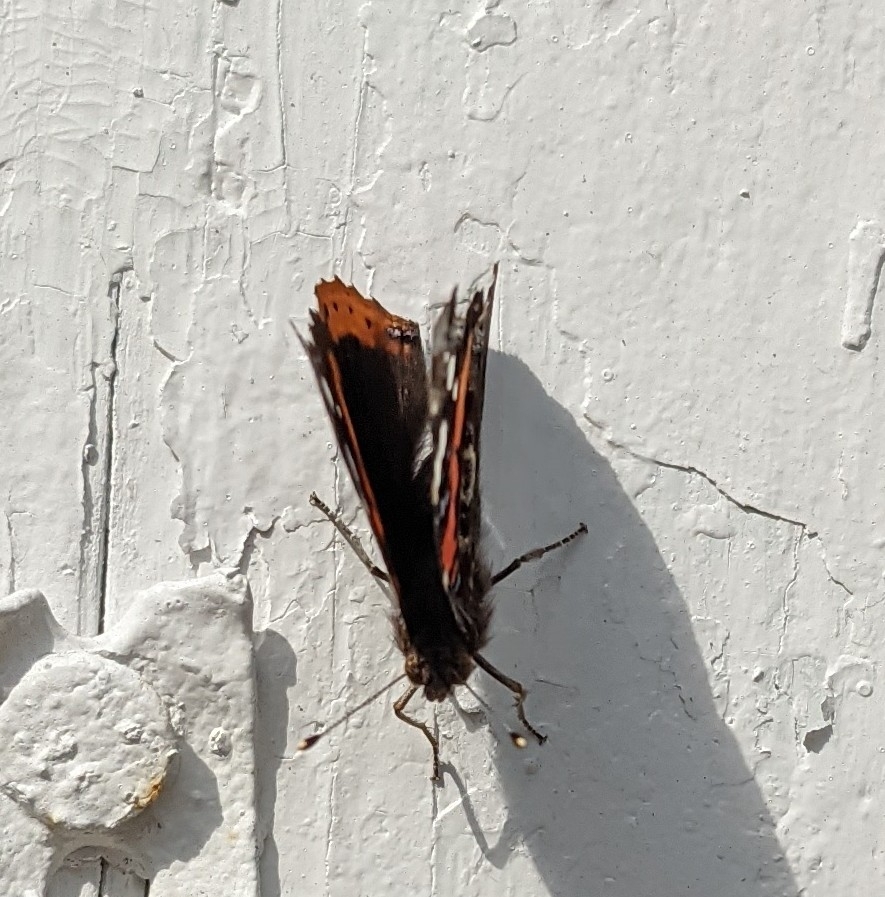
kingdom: Animalia
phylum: Arthropoda
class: Insecta
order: Lepidoptera
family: Nymphalidae
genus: Vanessa
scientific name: Vanessa atalanta
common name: Red admiral
